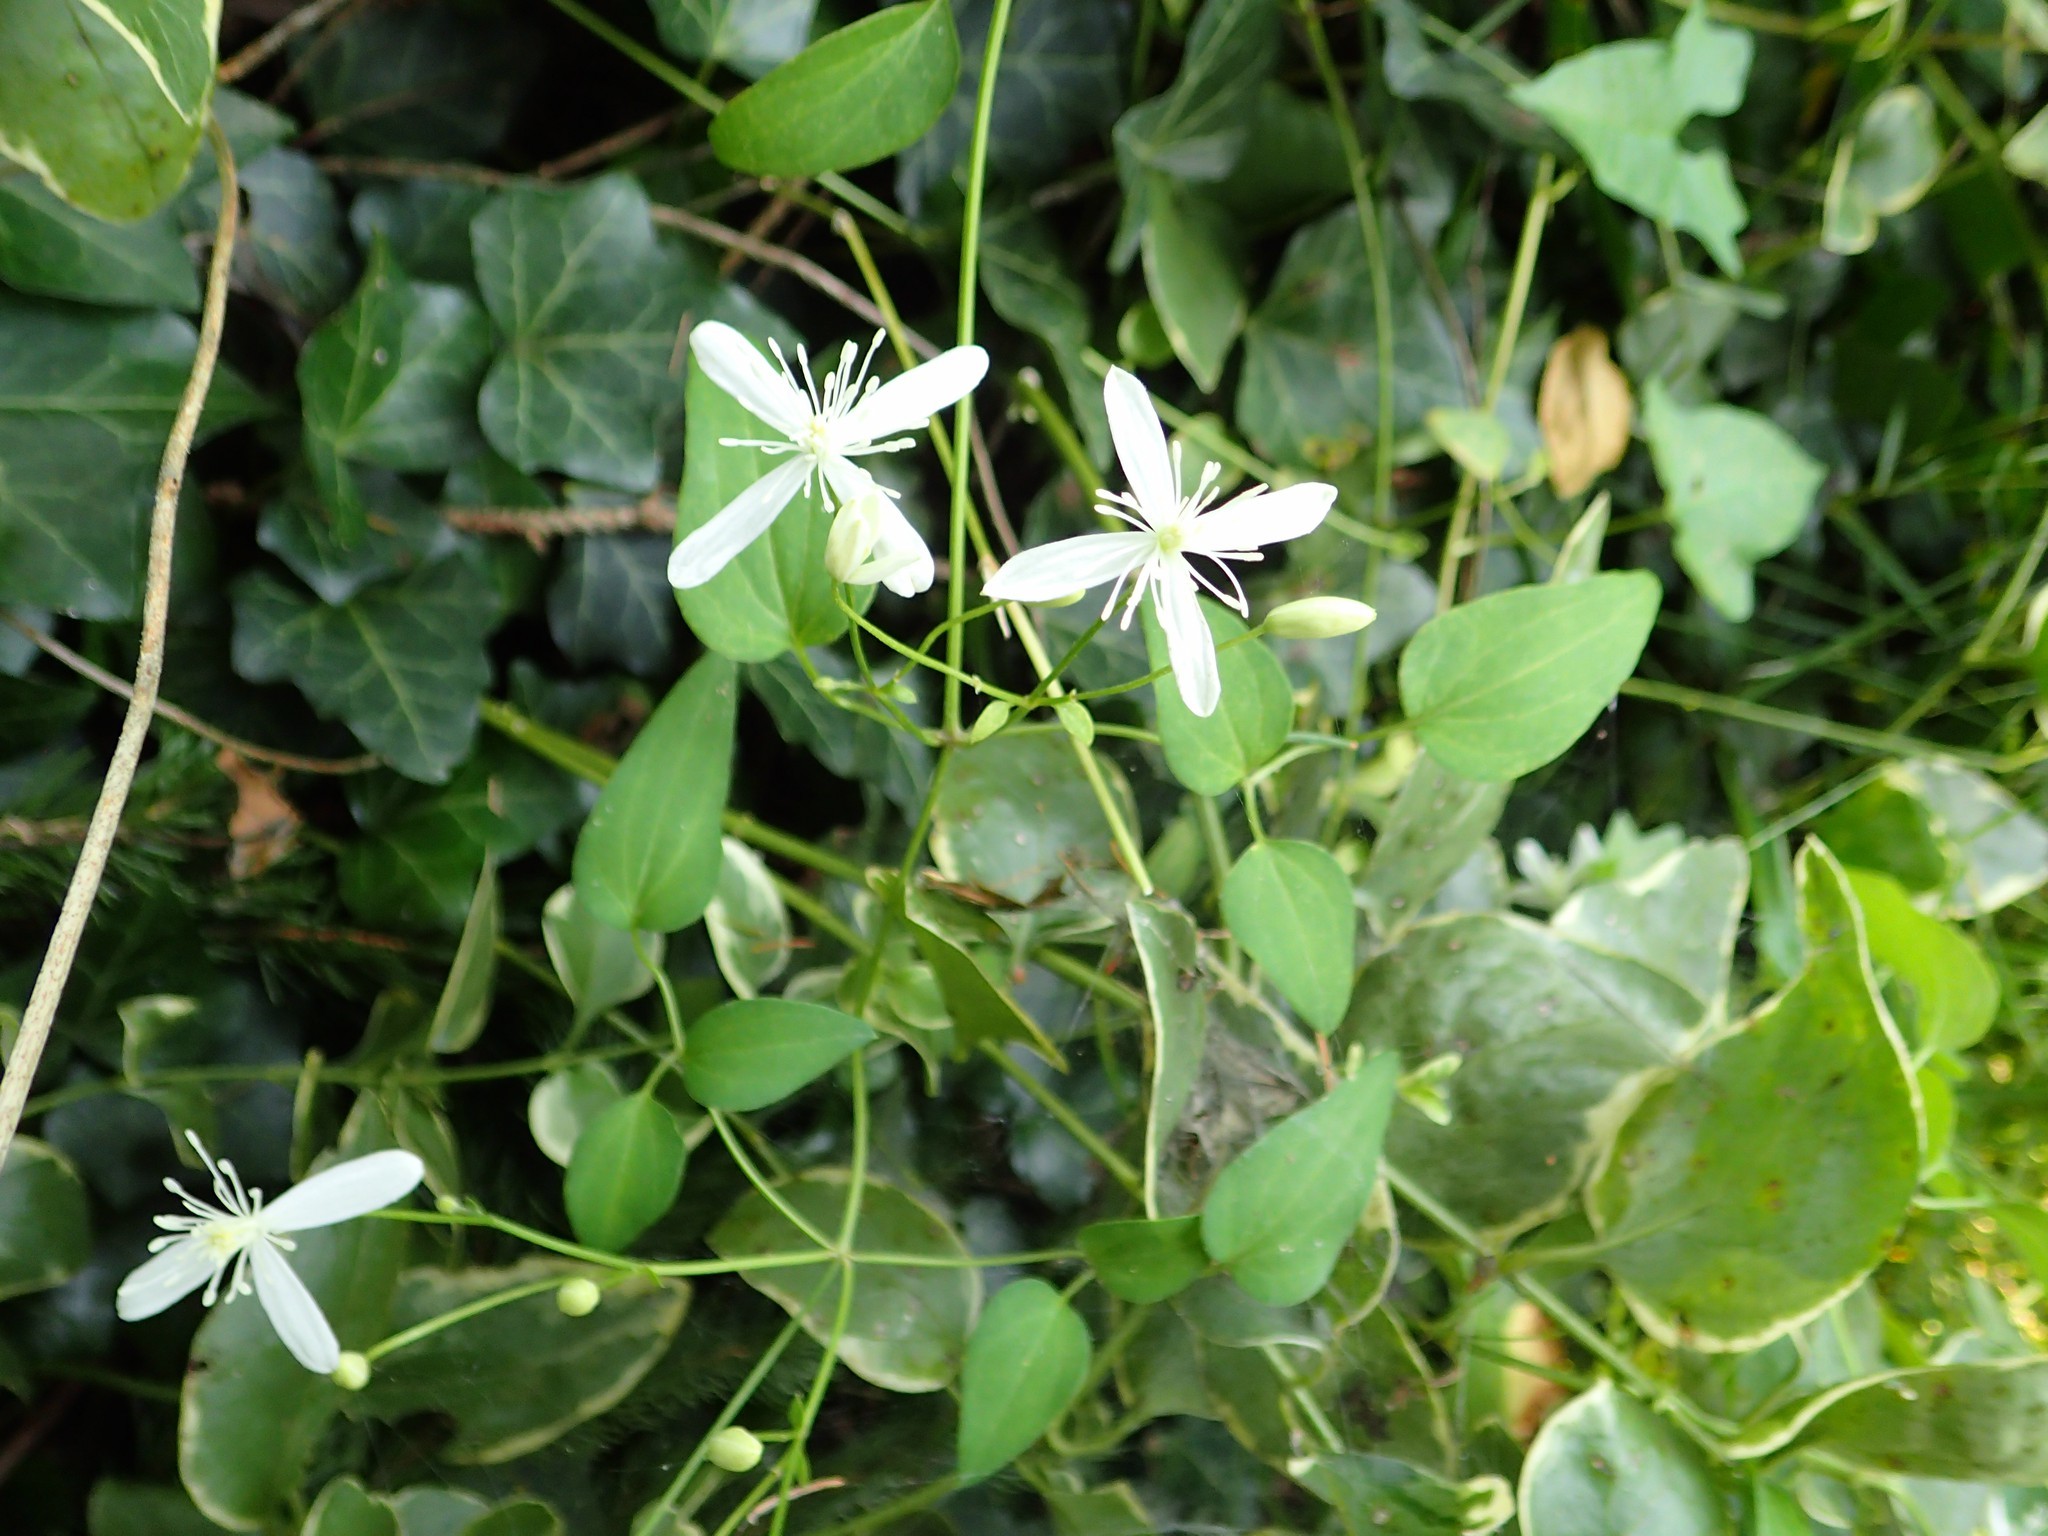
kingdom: Plantae
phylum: Tracheophyta
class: Magnoliopsida
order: Ranunculales
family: Ranunculaceae
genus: Clematis
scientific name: Clematis terniflora
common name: Sweet autumn clematis
